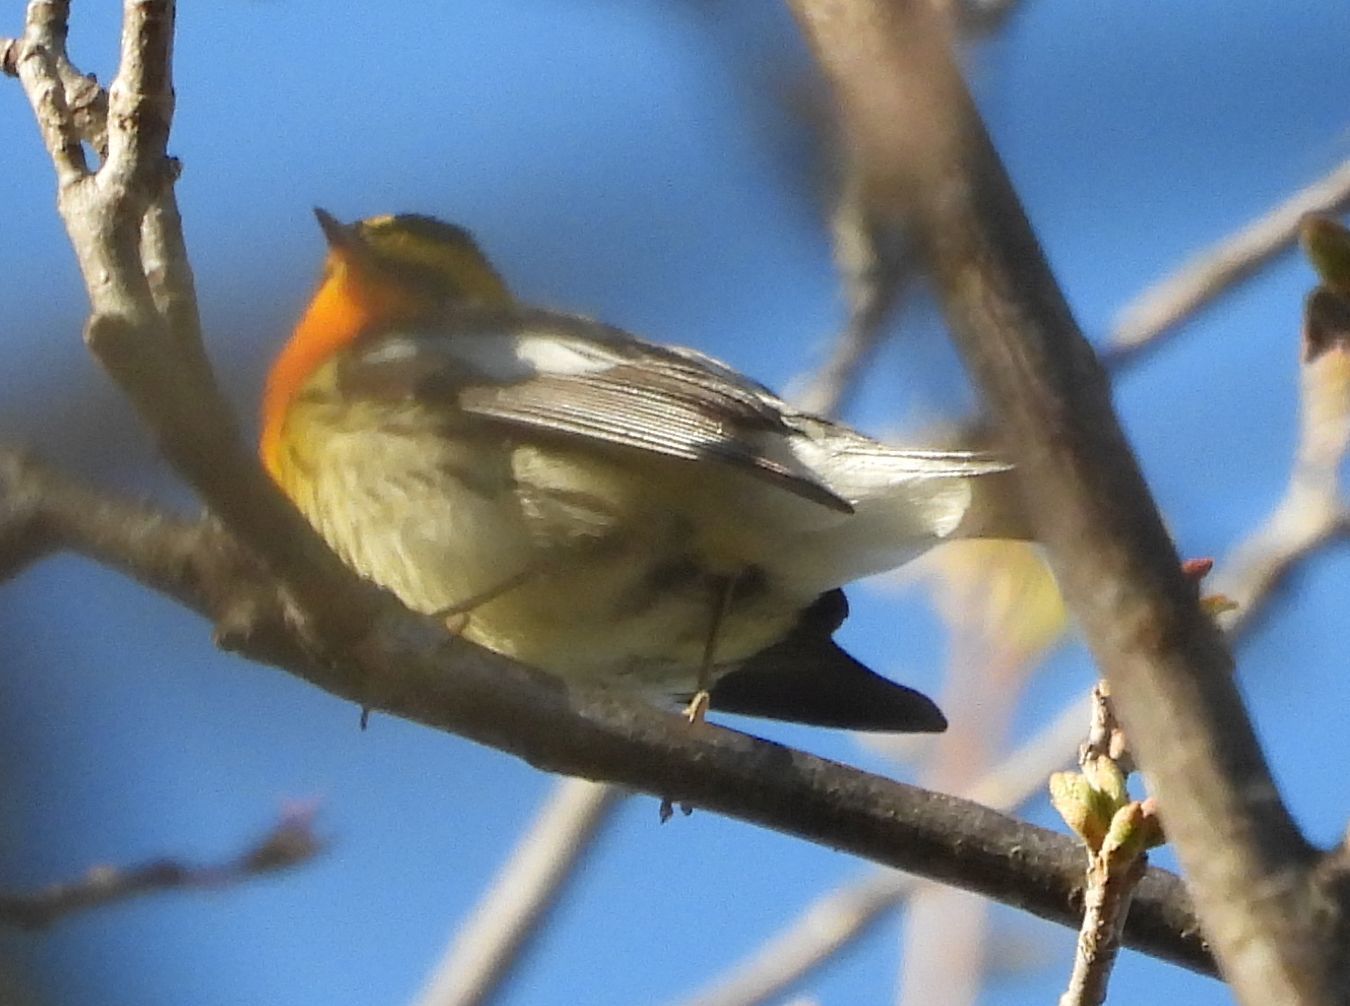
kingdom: Animalia
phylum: Chordata
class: Aves
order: Passeriformes
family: Parulidae
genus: Setophaga
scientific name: Setophaga fusca
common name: Blackburnian warbler
